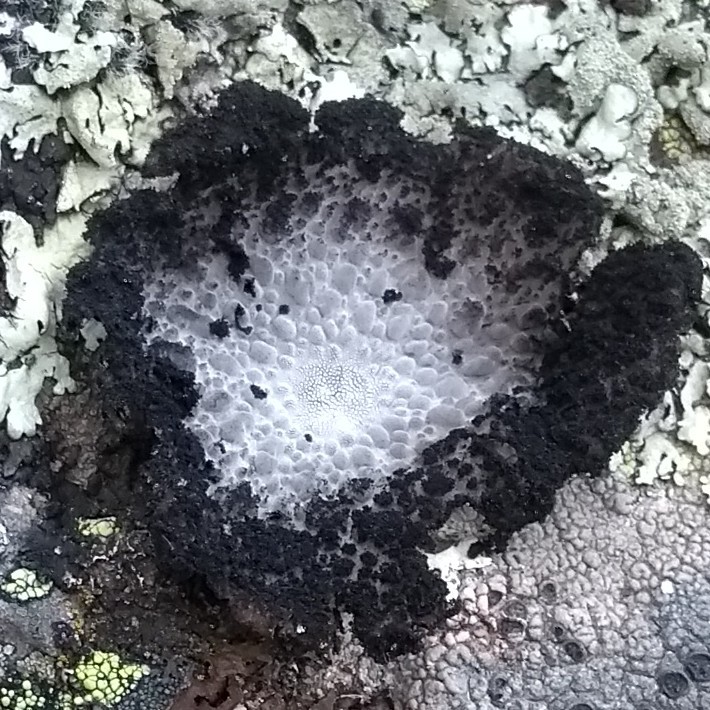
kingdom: Fungi
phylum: Ascomycota
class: Lecanoromycetes
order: Umbilicariales
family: Umbilicariaceae
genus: Lasallia
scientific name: Lasallia pustulata
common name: Blistered toadskin lichen
